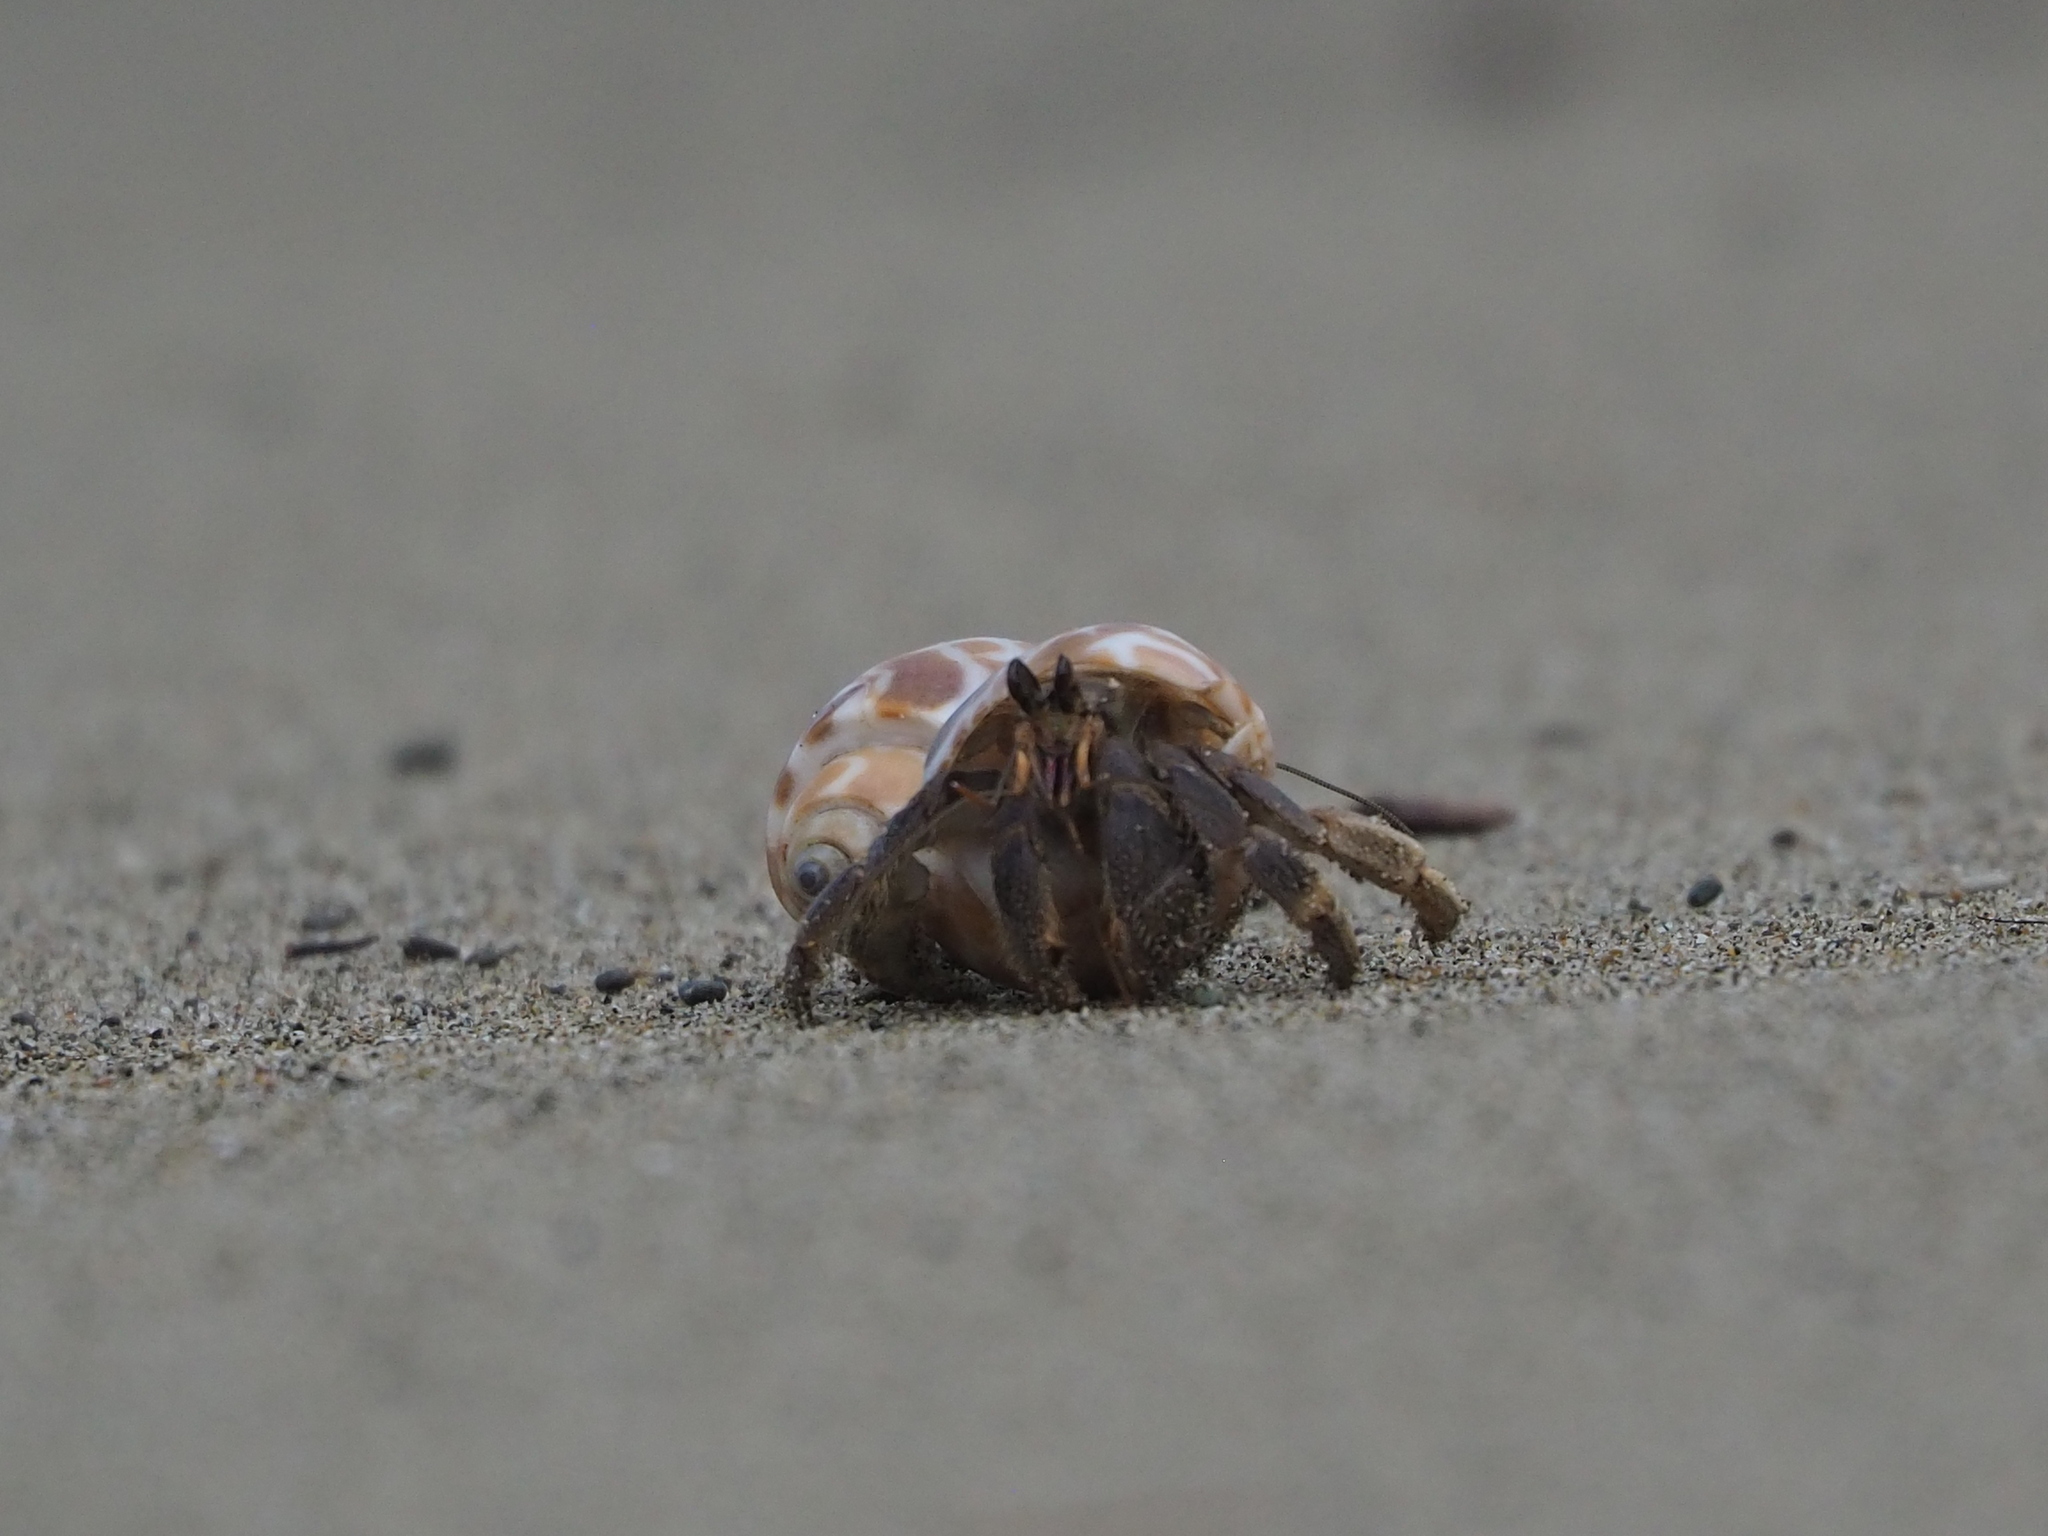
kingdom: Animalia
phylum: Arthropoda
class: Malacostraca
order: Decapoda
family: Coenobitidae
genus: Coenobita
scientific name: Coenobita rugosus
